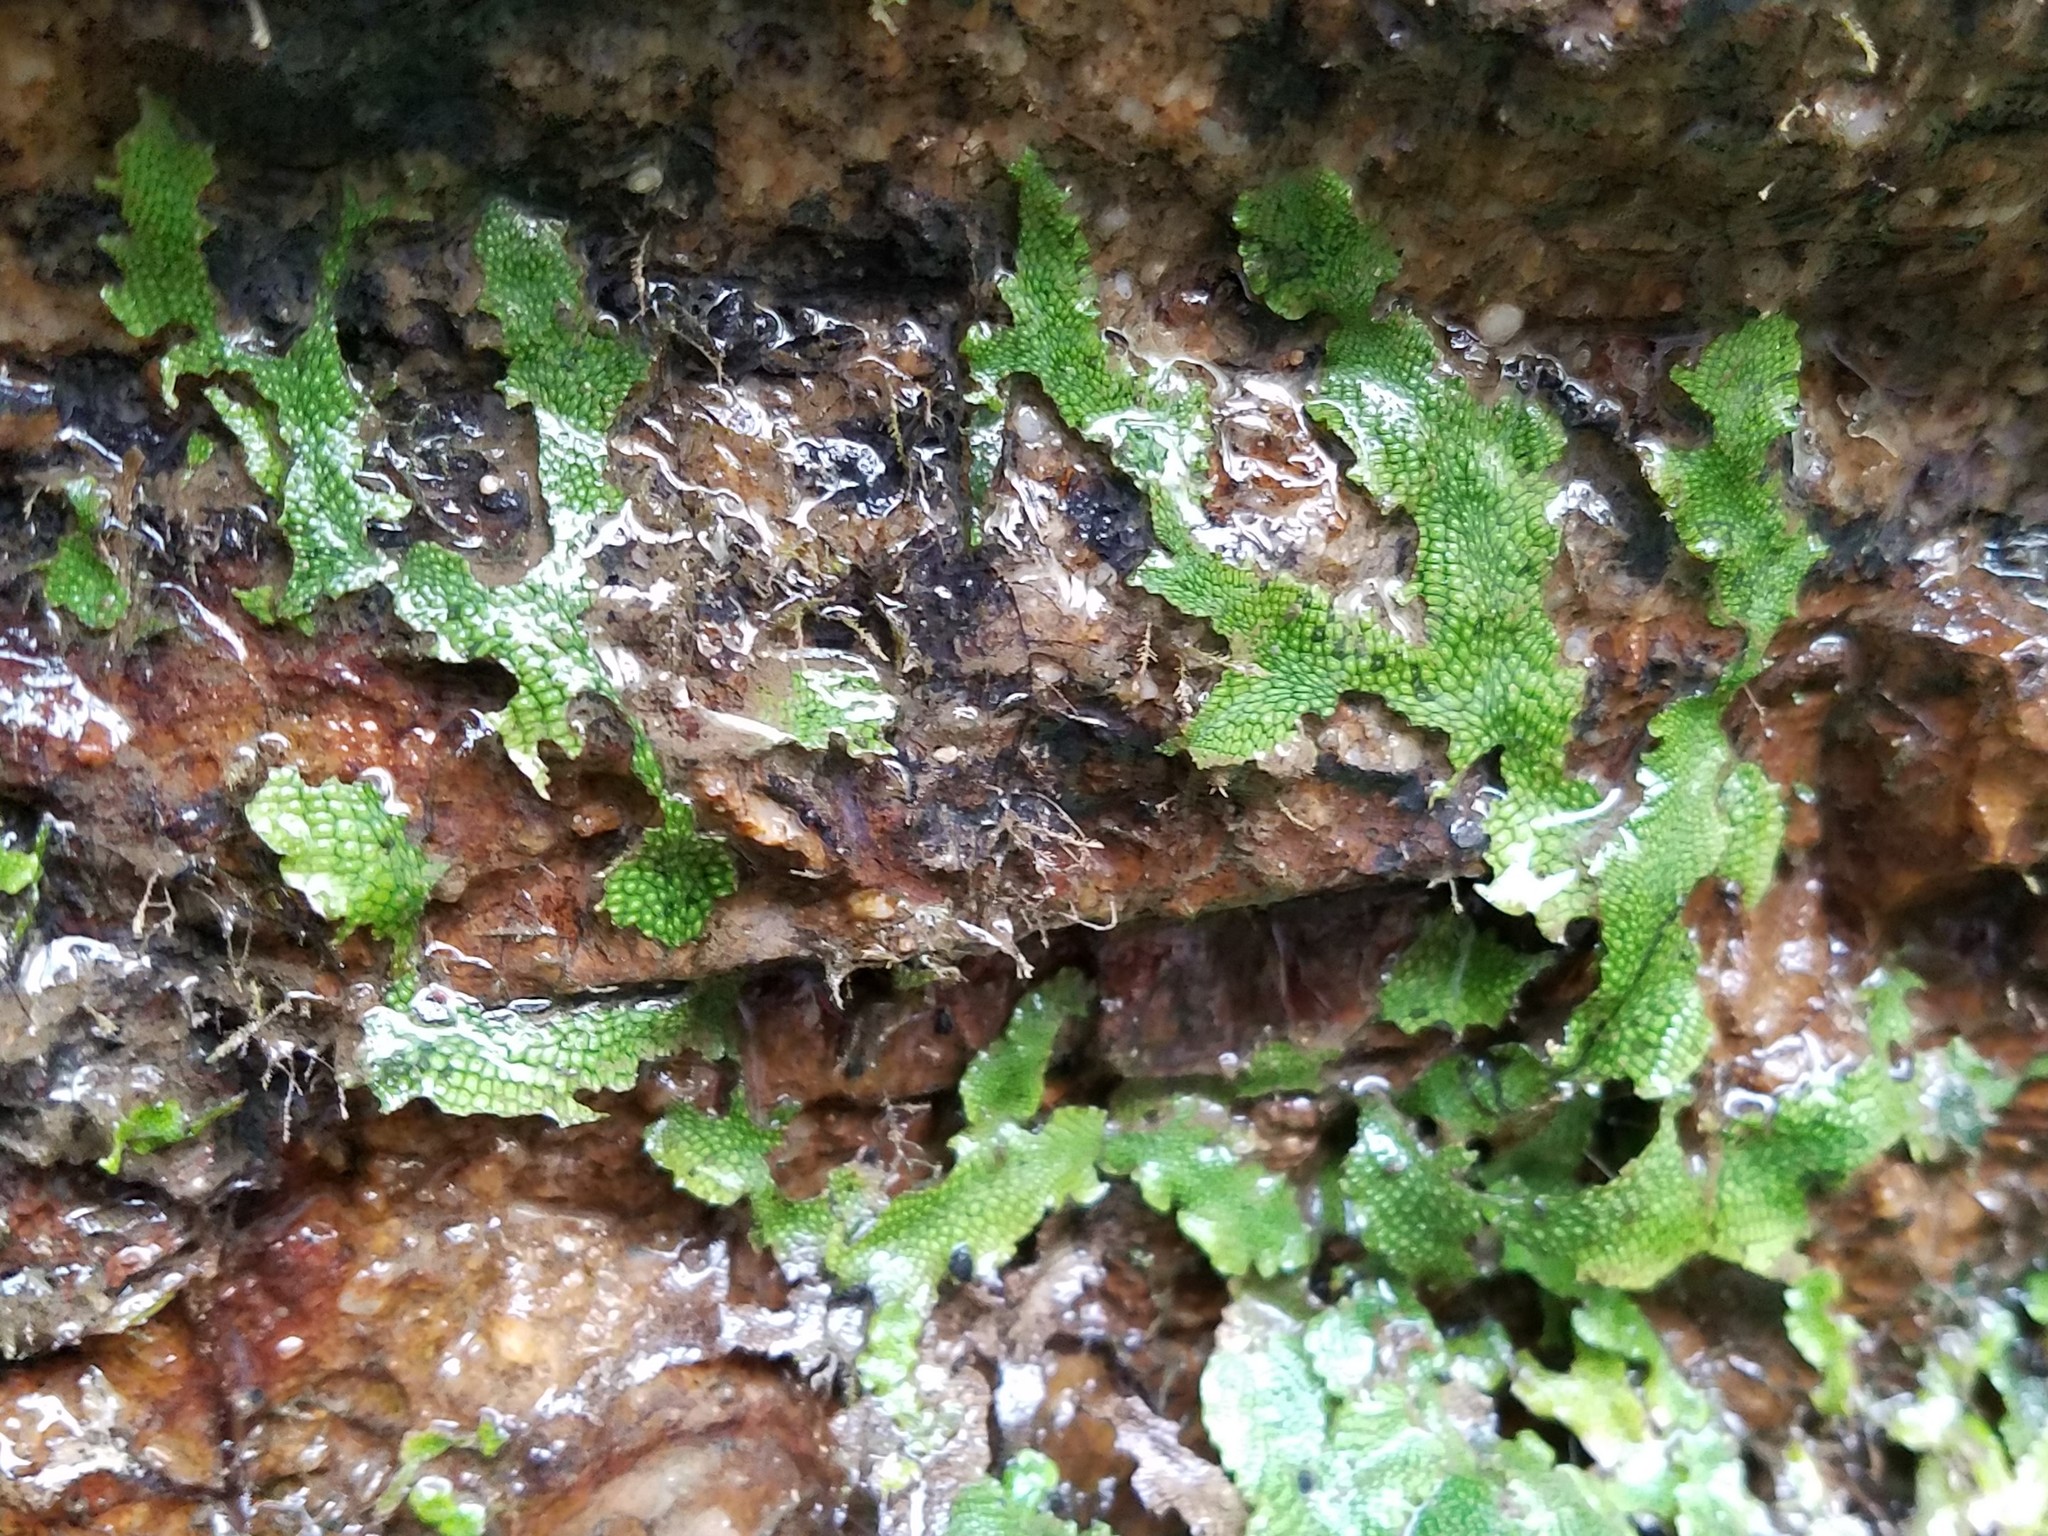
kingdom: Plantae
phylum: Marchantiophyta
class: Marchantiopsida
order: Marchantiales
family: Conocephalaceae
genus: Conocephalum
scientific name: Conocephalum salebrosum
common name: Cat-tongue liverwort
